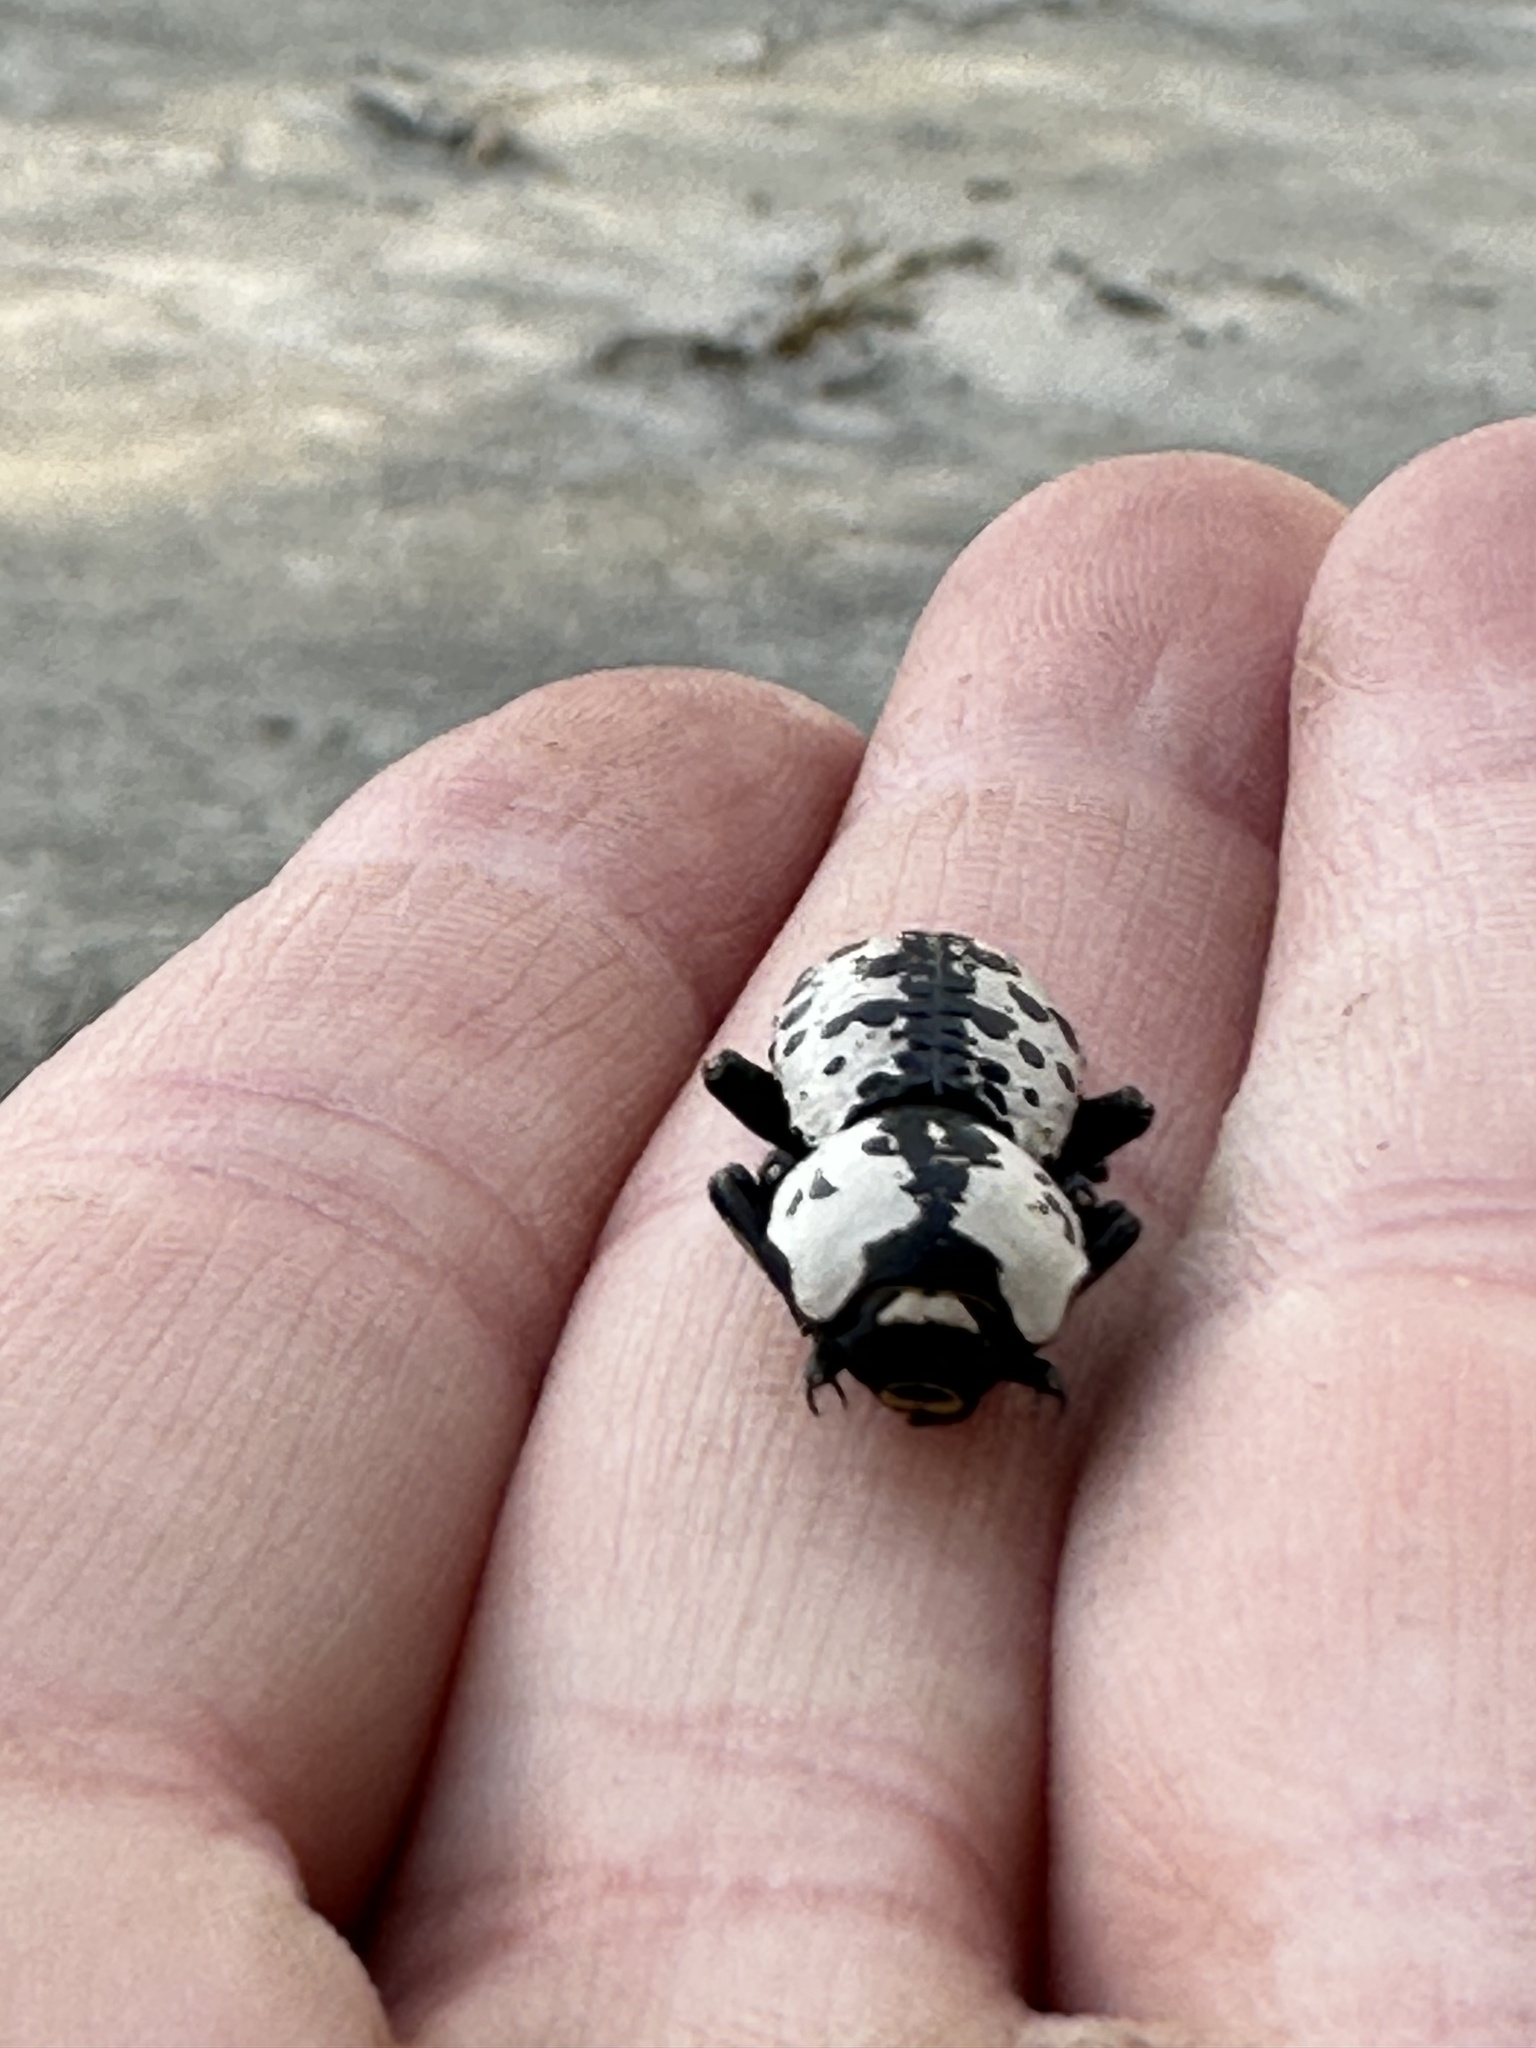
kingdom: Animalia
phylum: Arthropoda
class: Insecta
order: Coleoptera
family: Zopheridae
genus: Zopherus
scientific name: Zopherus nodulosus
